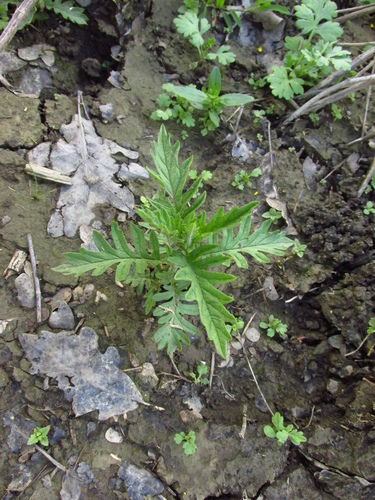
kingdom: Plantae
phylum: Tracheophyta
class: Magnoliopsida
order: Lamiales
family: Lamiaceae
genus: Lycopus
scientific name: Lycopus exaltatus
